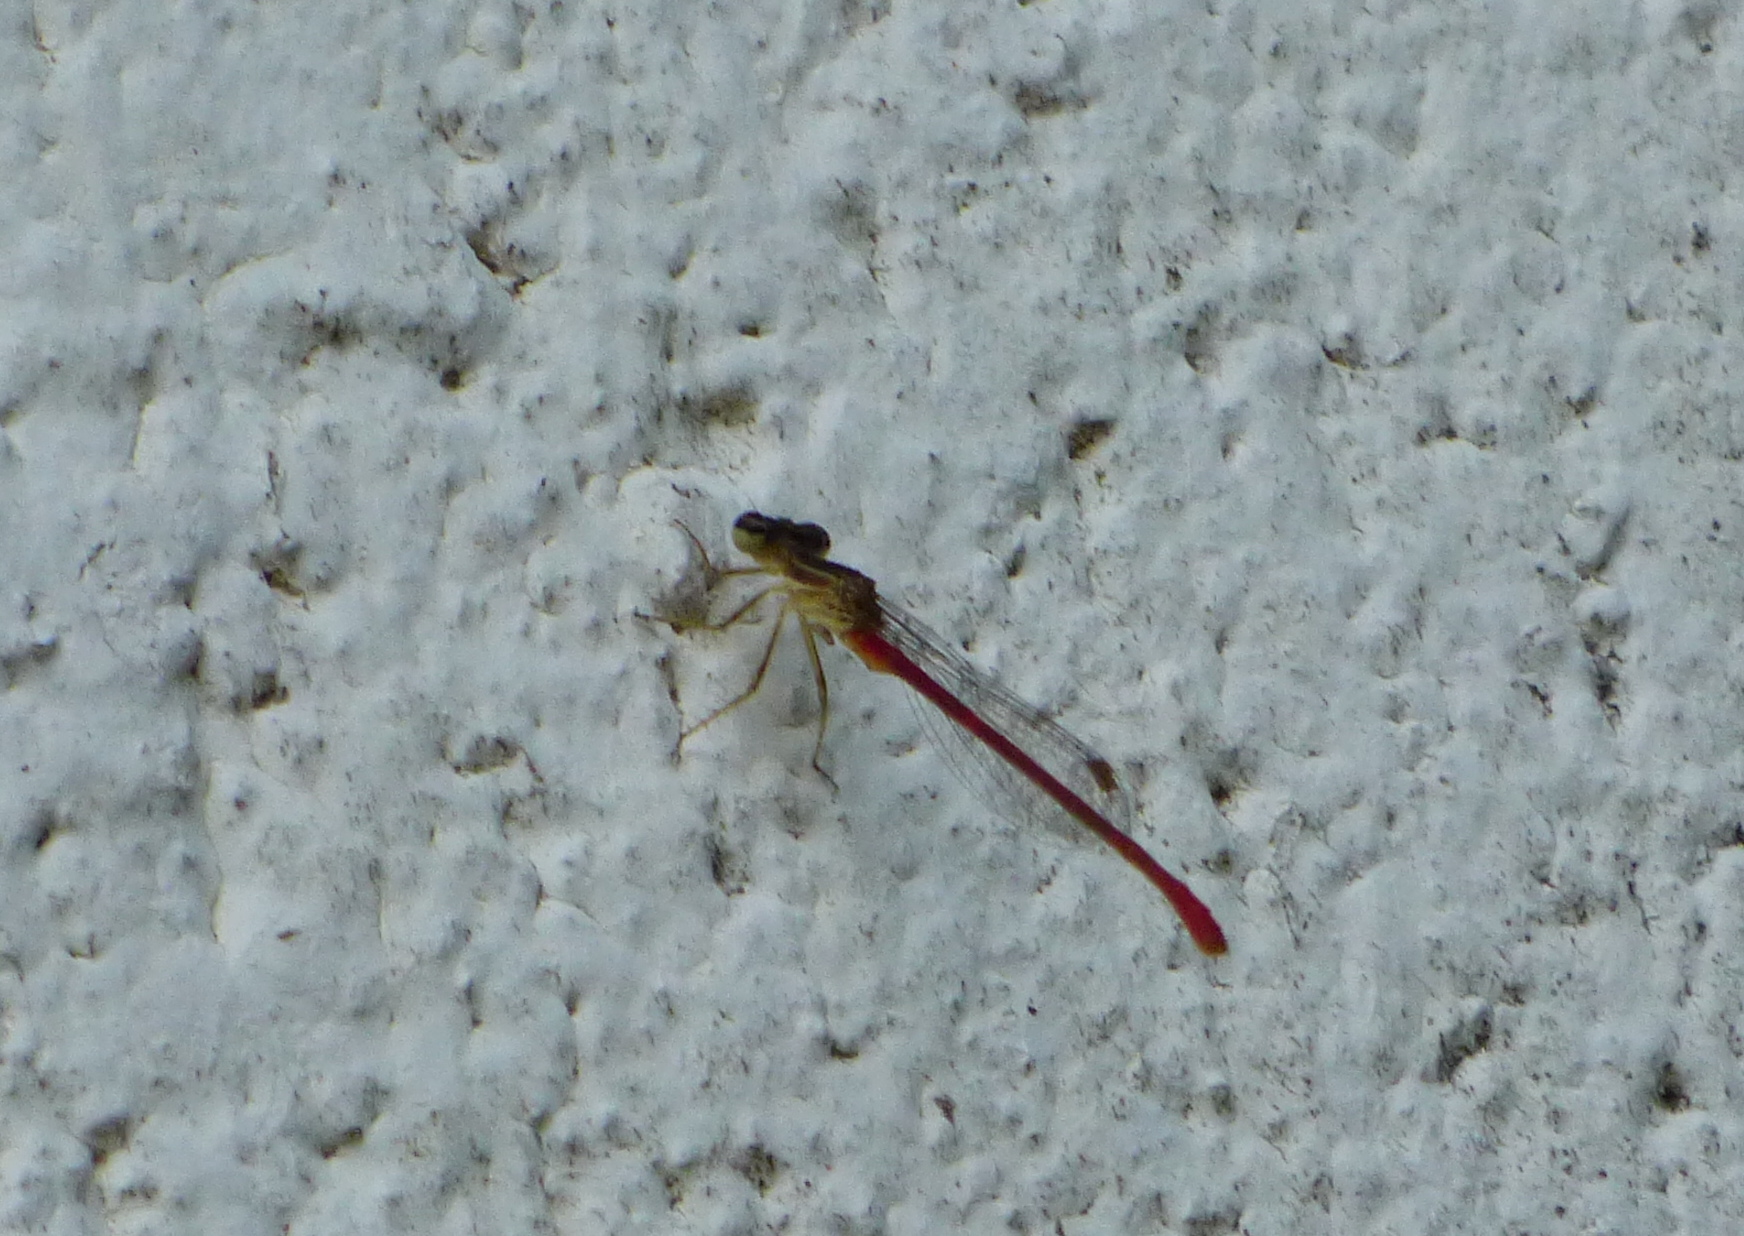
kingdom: Animalia
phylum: Arthropoda
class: Insecta
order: Odonata
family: Coenagrionidae
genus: Telebasis
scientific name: Telebasis willinki
